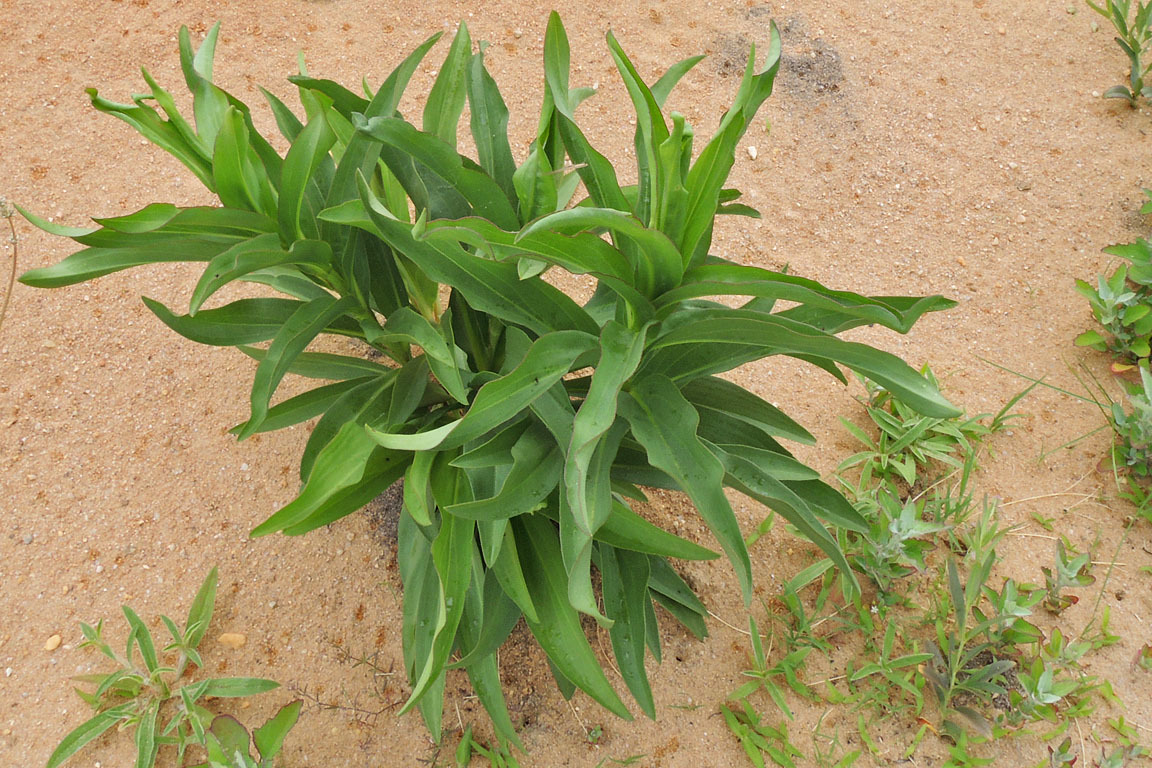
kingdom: Plantae
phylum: Tracheophyta
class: Magnoliopsida
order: Asterales
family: Asteraceae
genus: Solidago
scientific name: Solidago sempervirens
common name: Salt-marsh goldenrod
